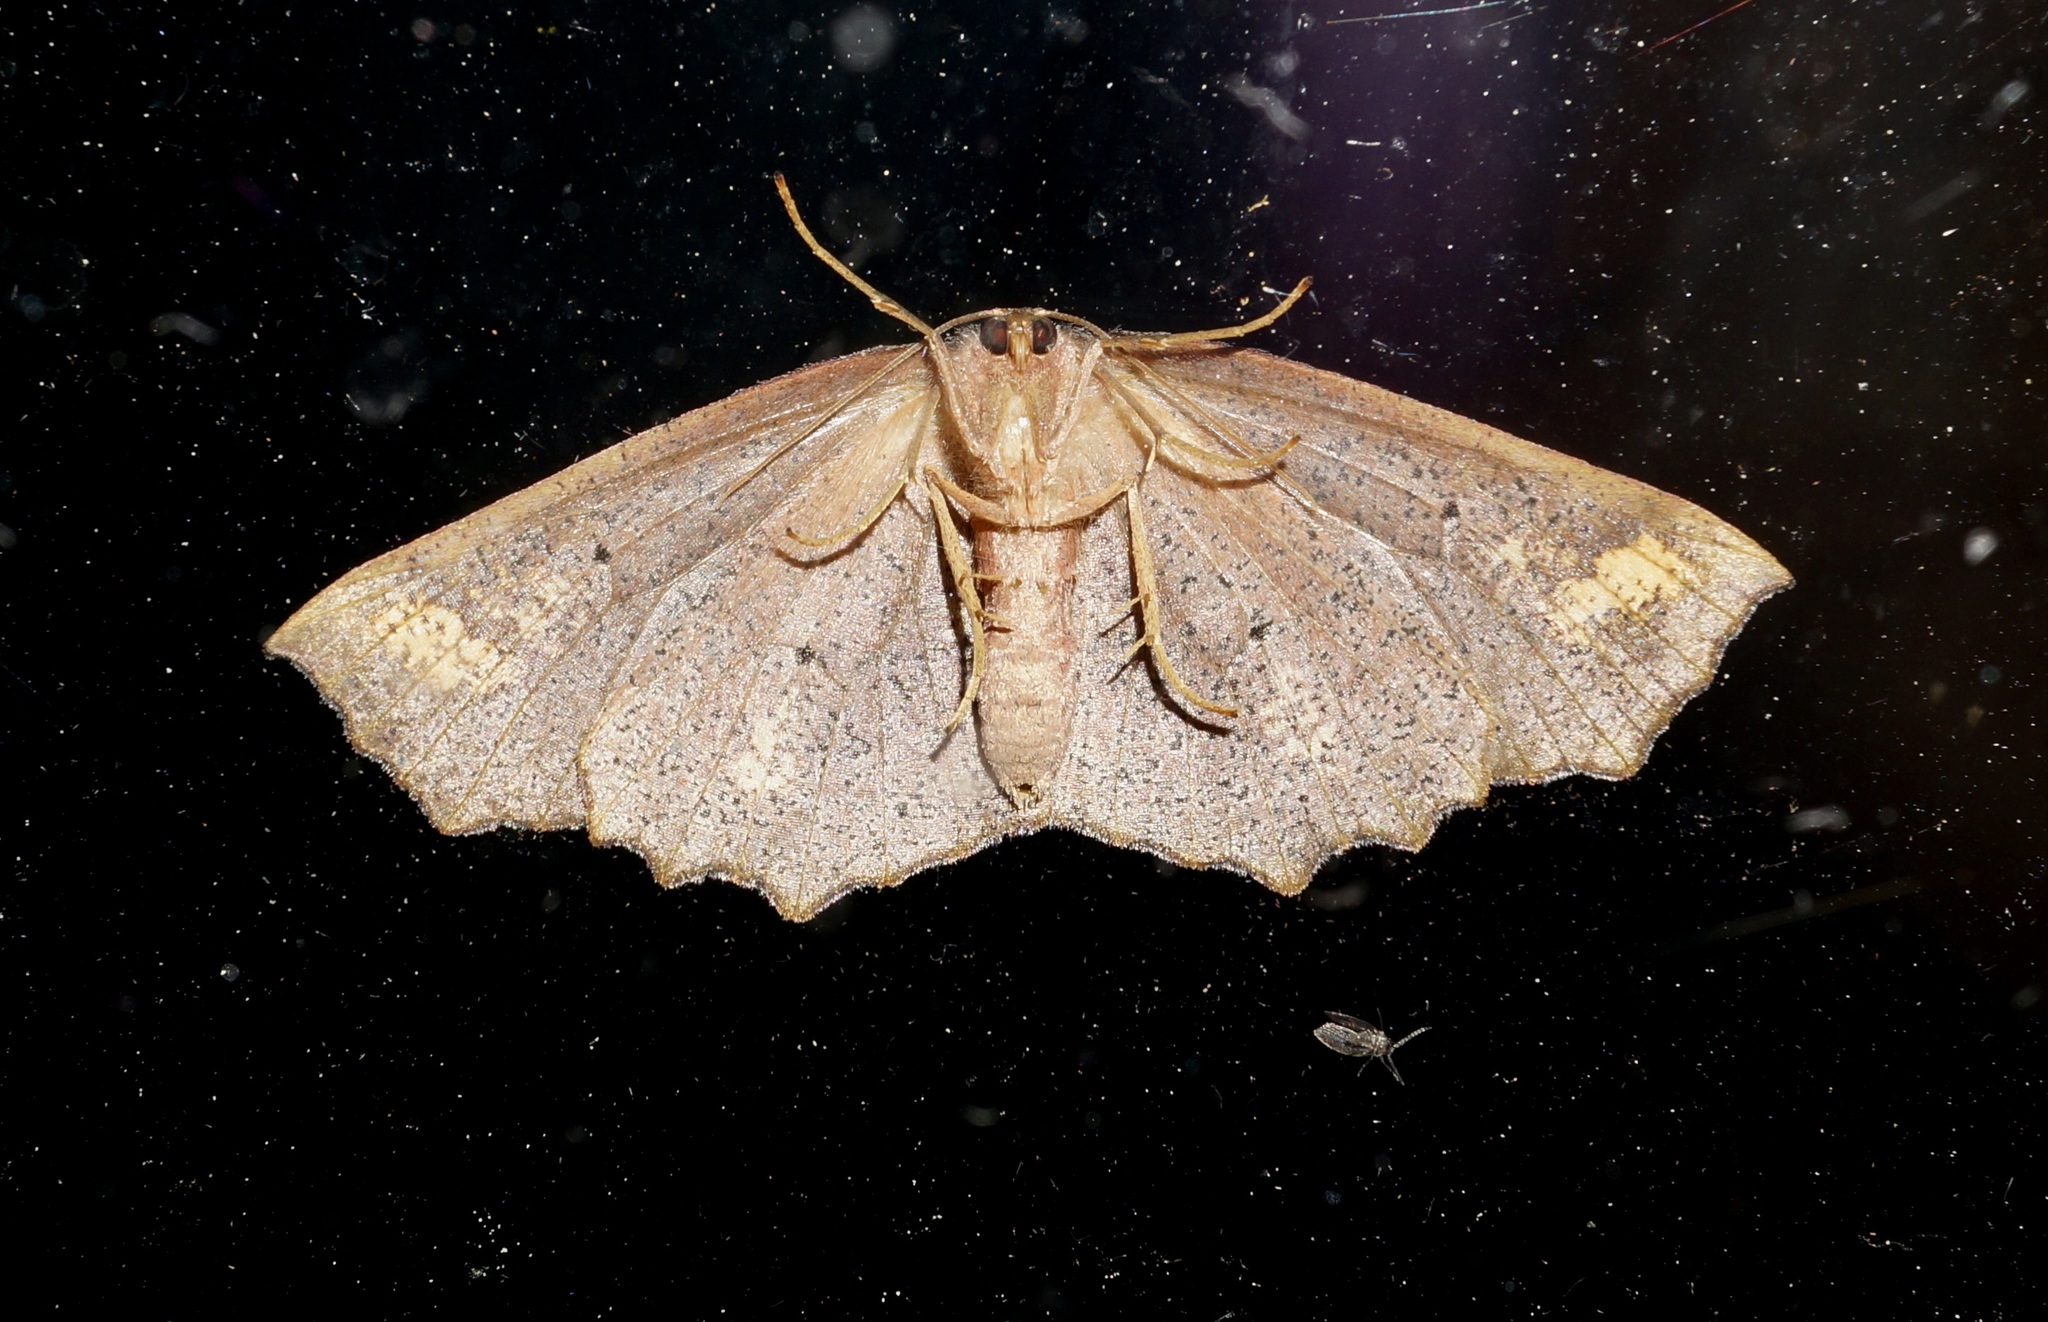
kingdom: Animalia
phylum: Arthropoda
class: Insecta
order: Lepidoptera
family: Geometridae
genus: Xyridacma
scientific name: Xyridacma ustaria
